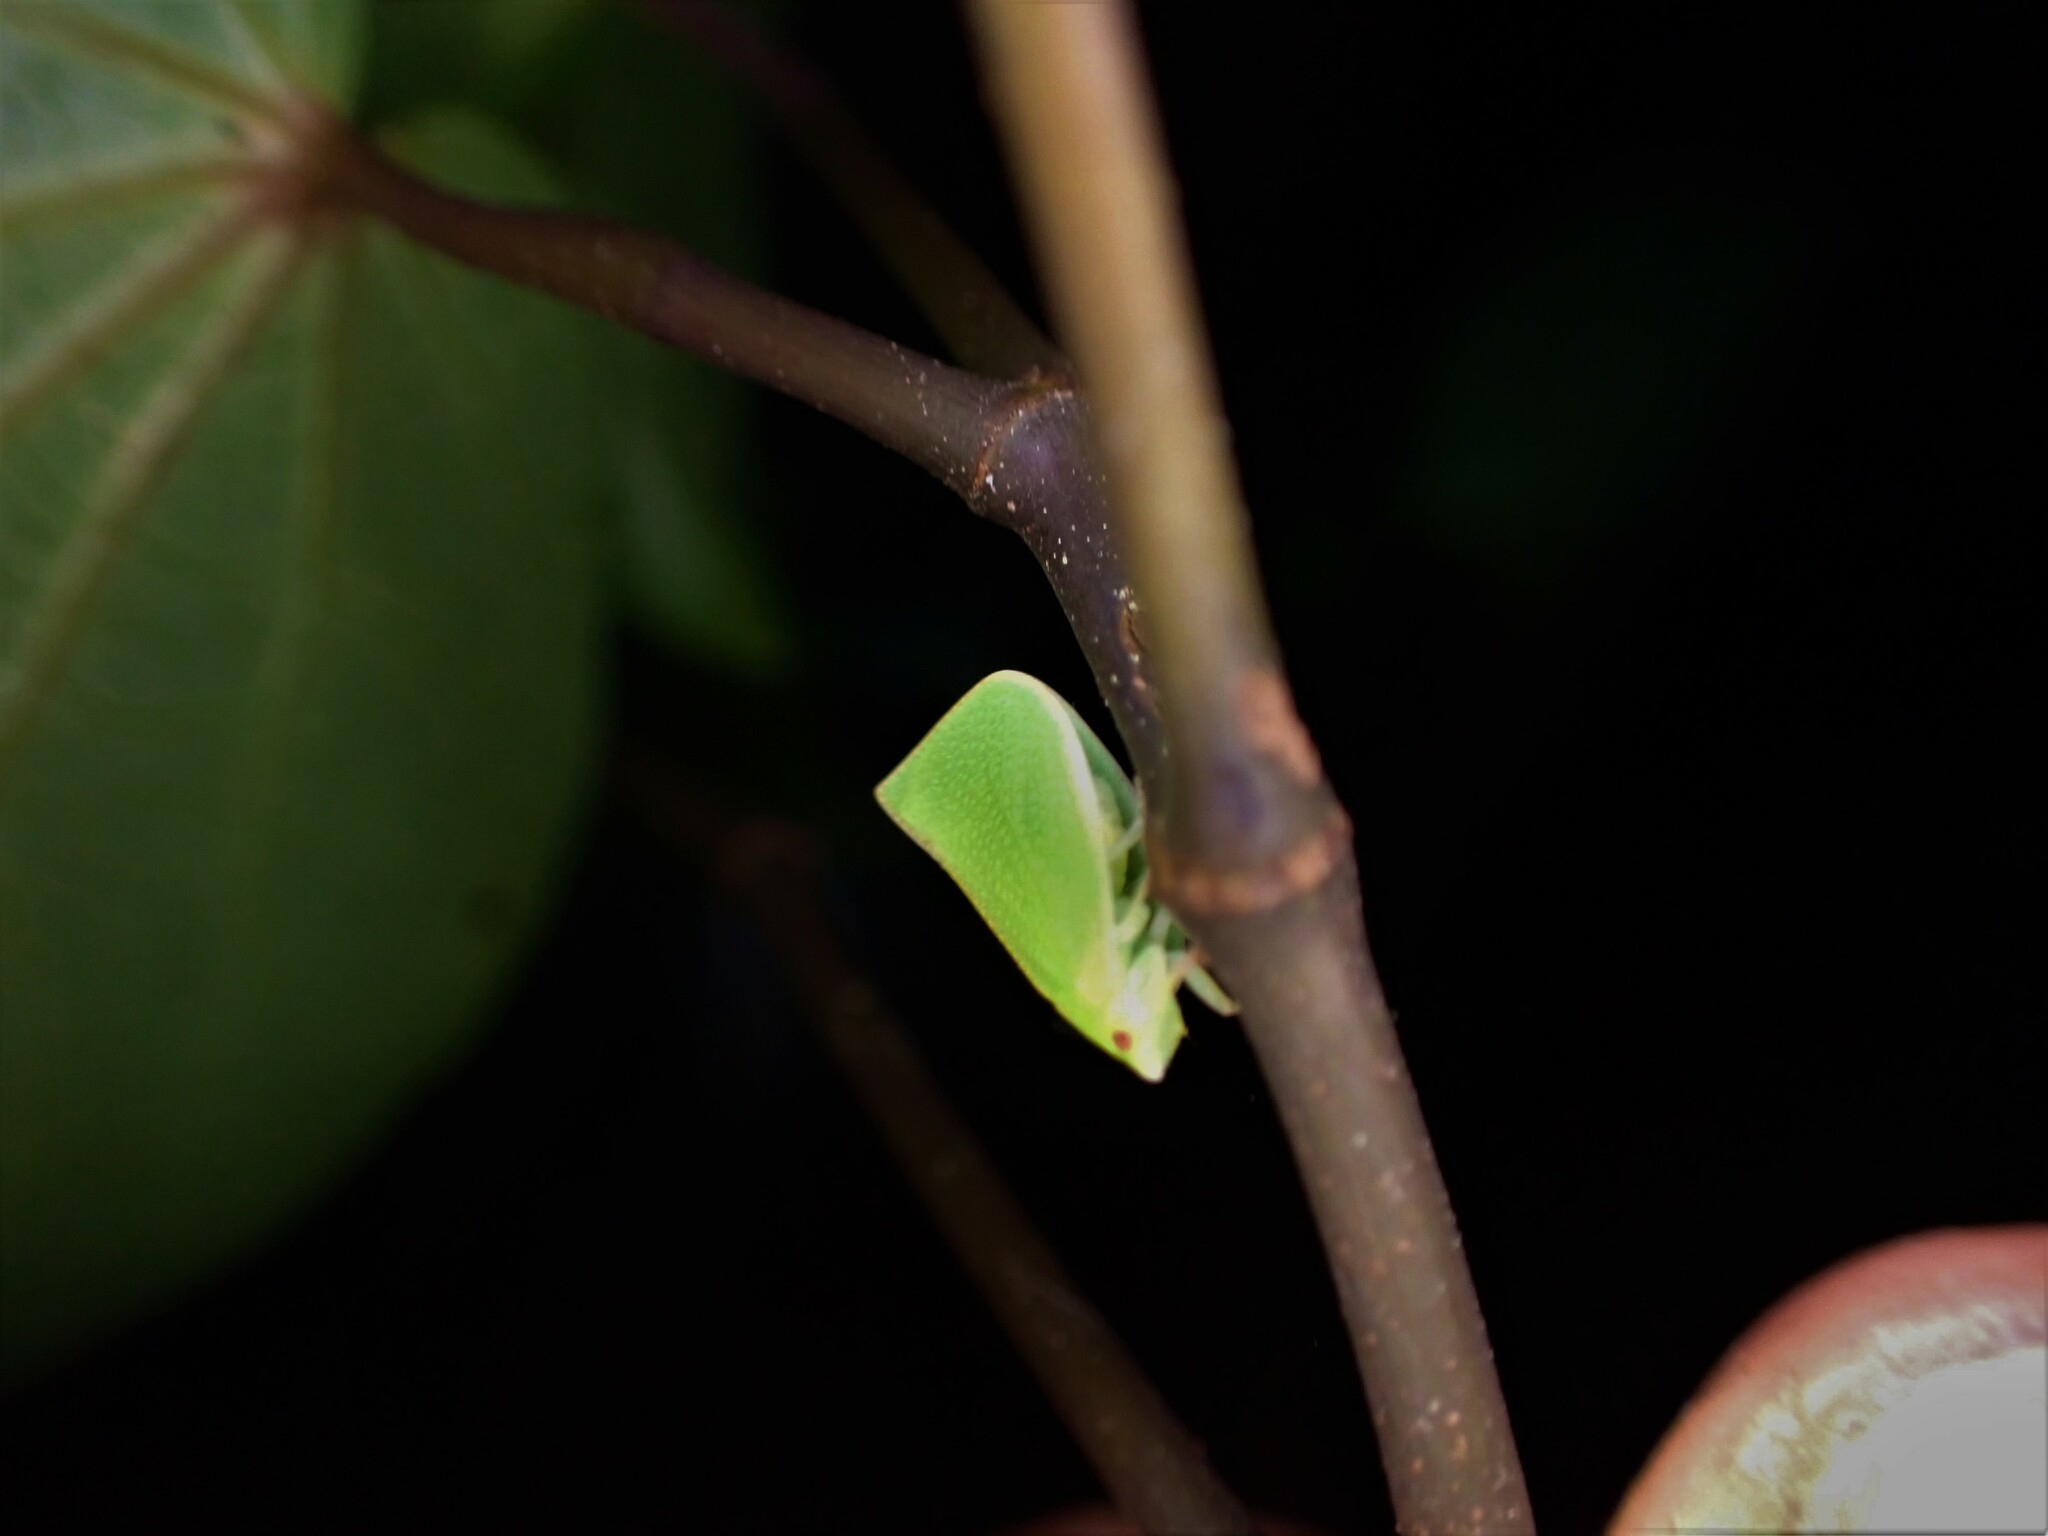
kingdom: Animalia
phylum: Arthropoda
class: Insecta
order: Hemiptera
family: Flatidae
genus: Siphanta
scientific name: Siphanta acuta
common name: Torpedo bug
